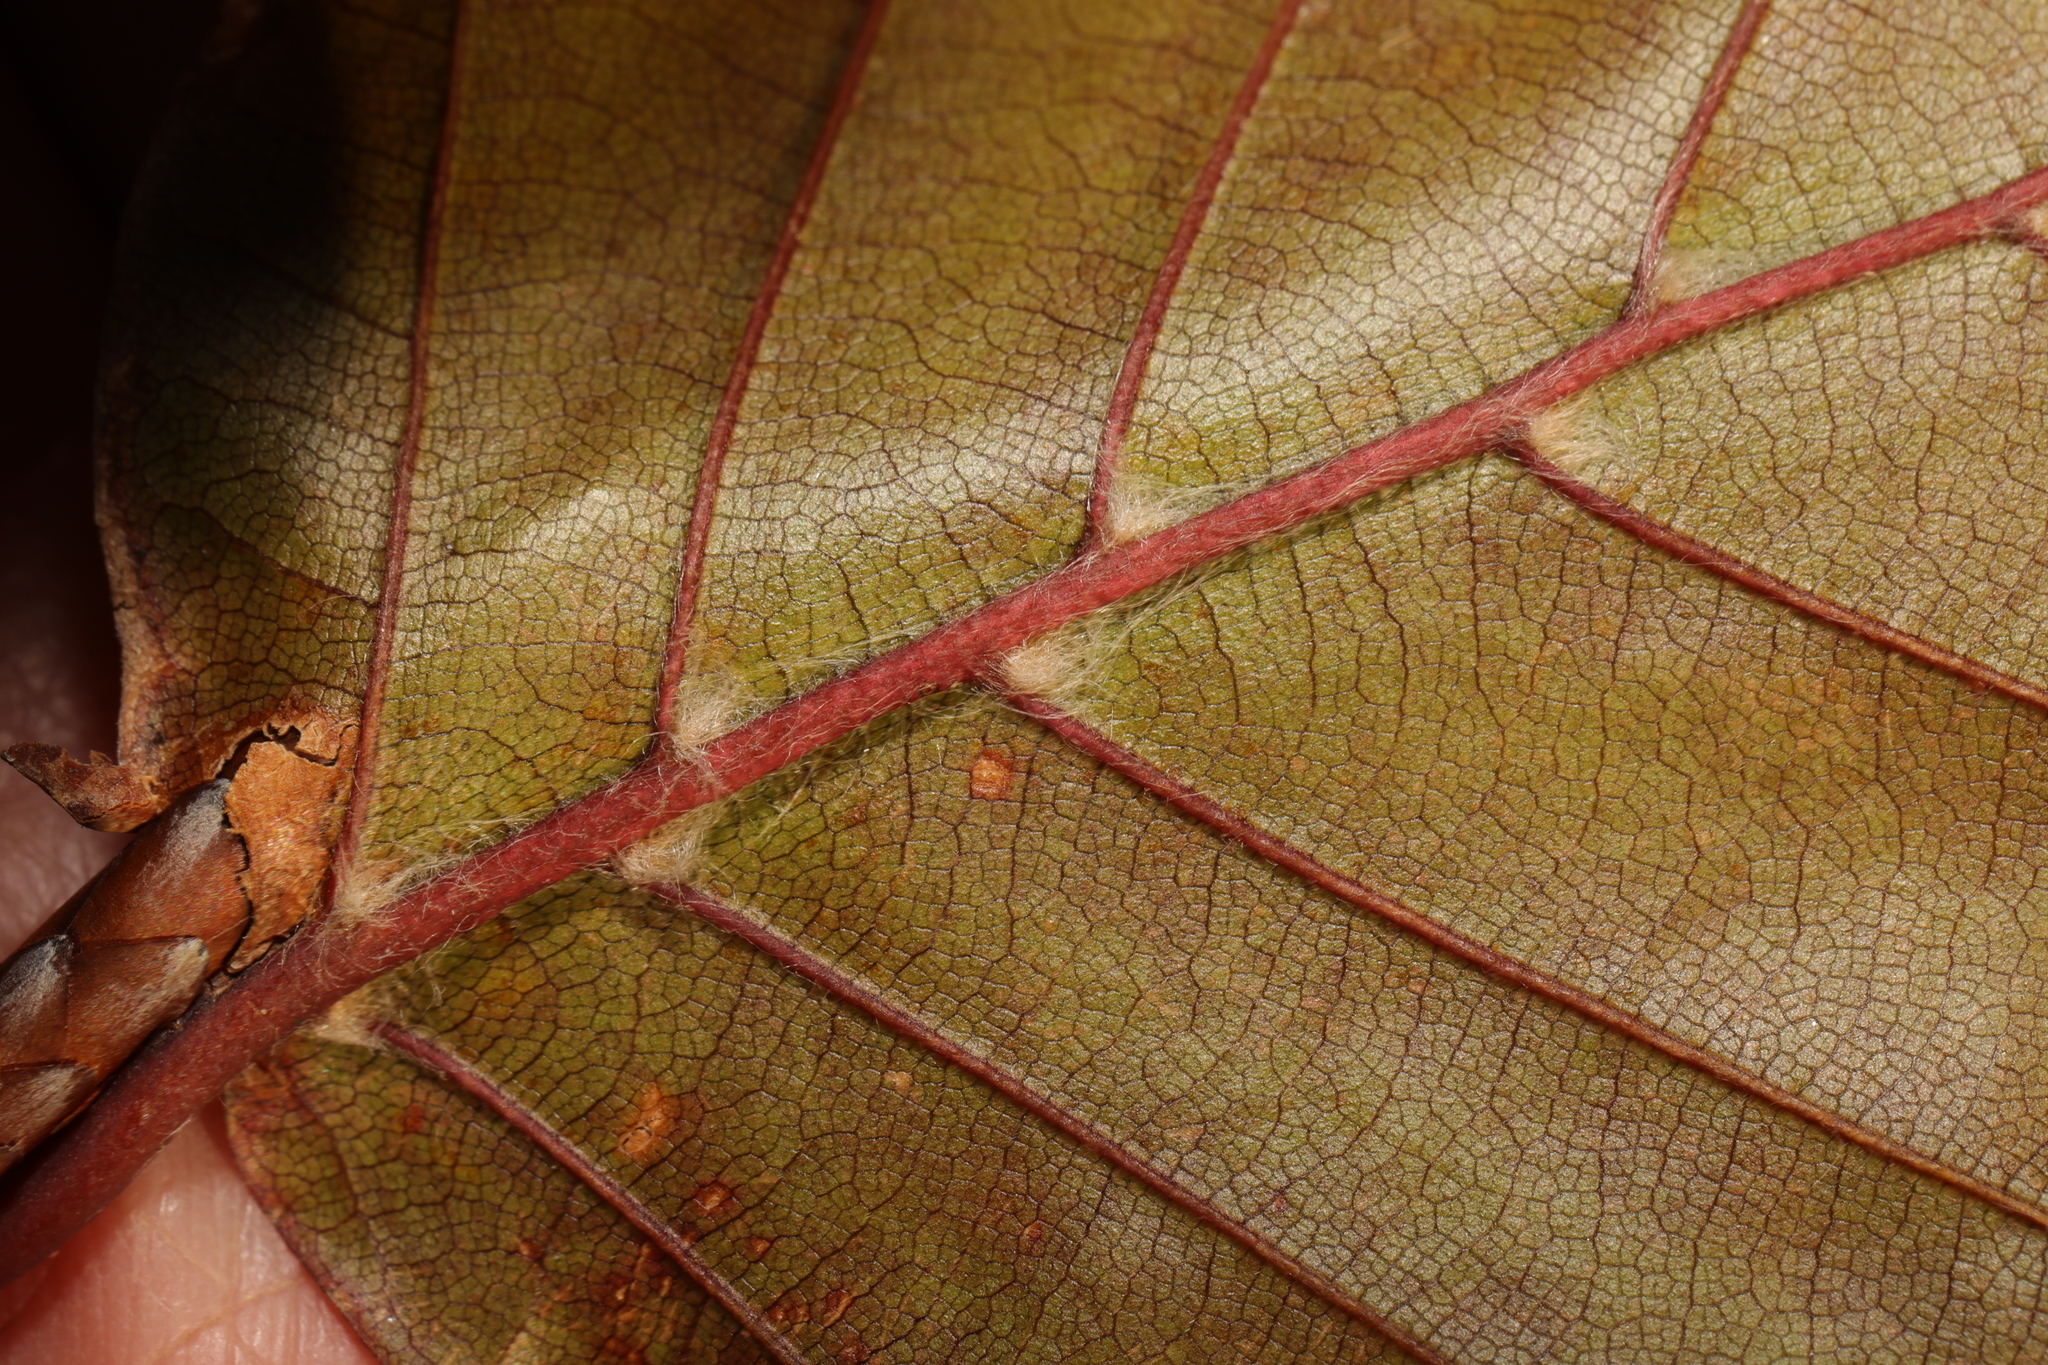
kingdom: Animalia
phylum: Arthropoda
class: Arachnida
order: Trombidiformes
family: Eriophyidae
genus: Phyllocoptes
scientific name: Phyllocoptes depressus
